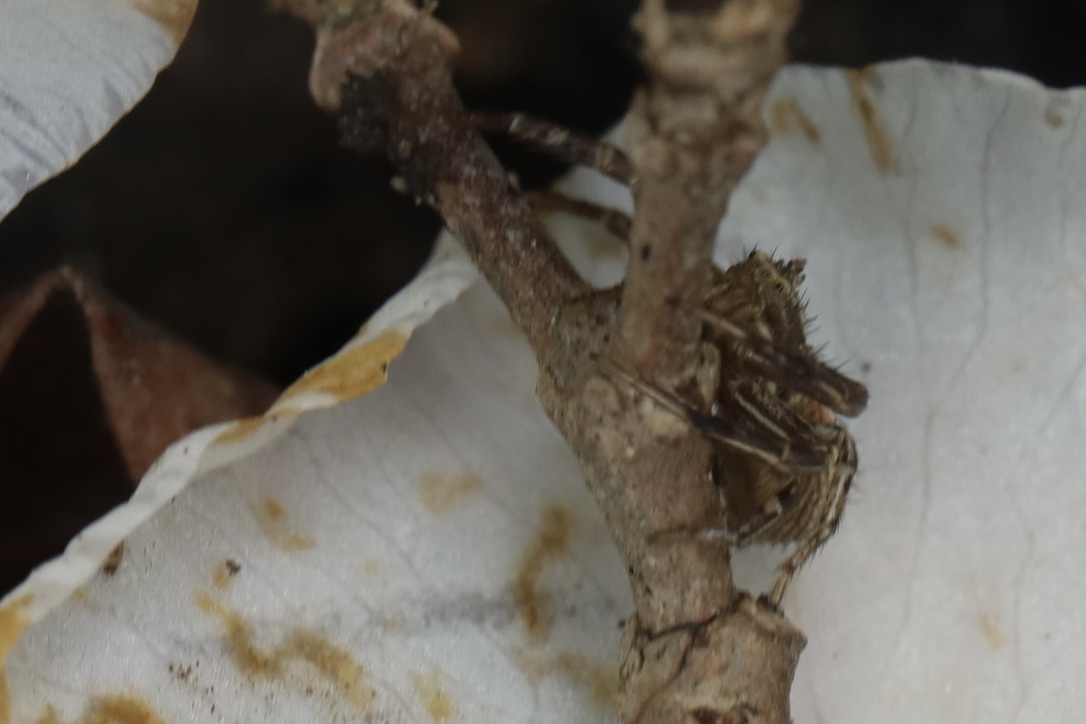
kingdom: Animalia
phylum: Arthropoda
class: Arachnida
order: Araneae
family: Thomisidae
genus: Xysticus
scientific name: Xysticus cristatus
